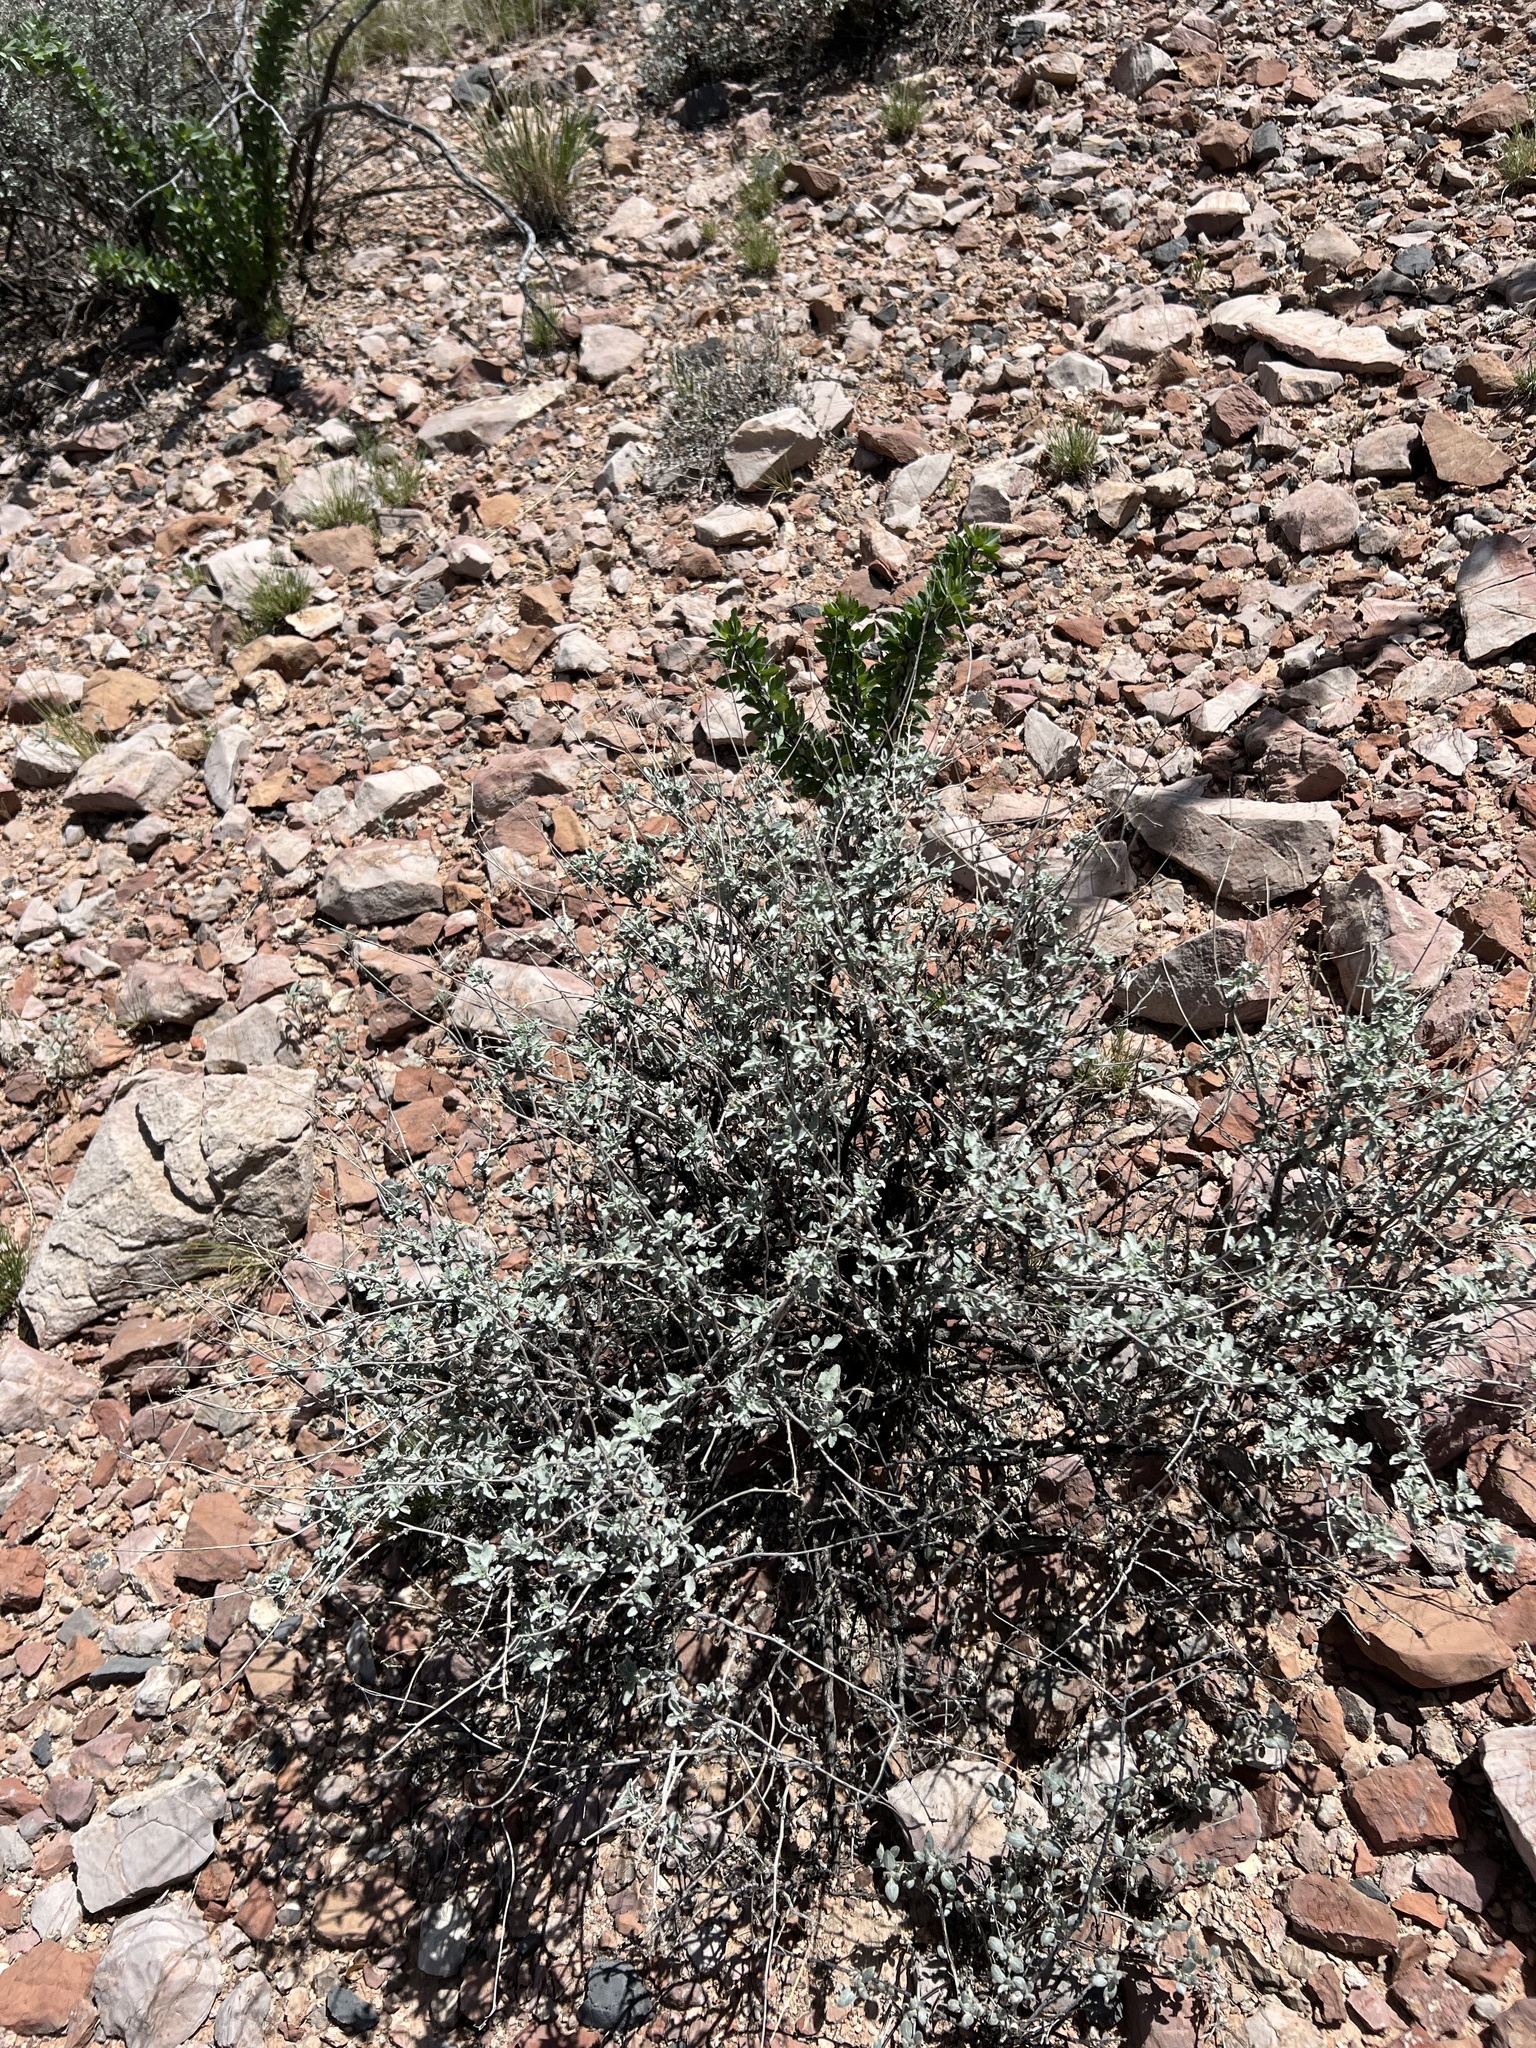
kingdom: Plantae
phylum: Tracheophyta
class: Magnoliopsida
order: Asterales
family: Asteraceae
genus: Parthenium
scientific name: Parthenium incanum
